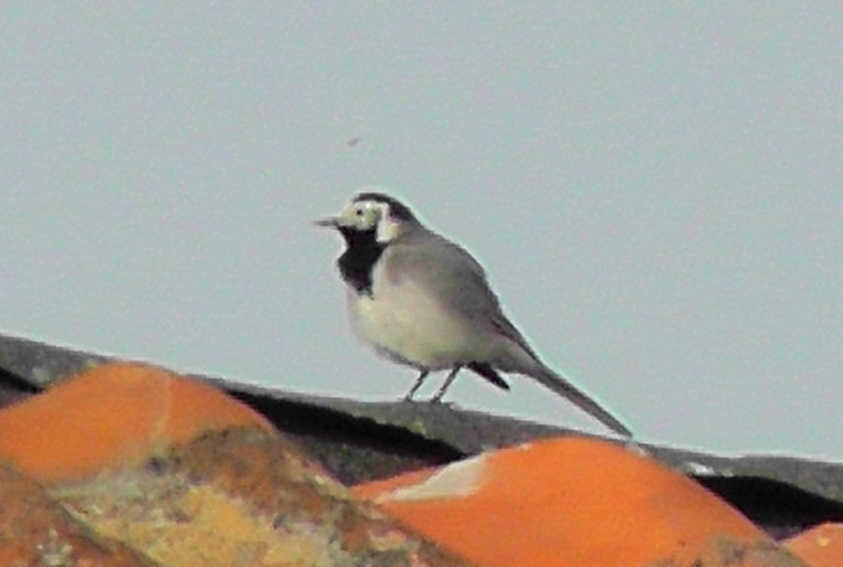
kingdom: Animalia
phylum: Chordata
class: Aves
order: Passeriformes
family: Motacillidae
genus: Motacilla
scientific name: Motacilla alba
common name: White wagtail
